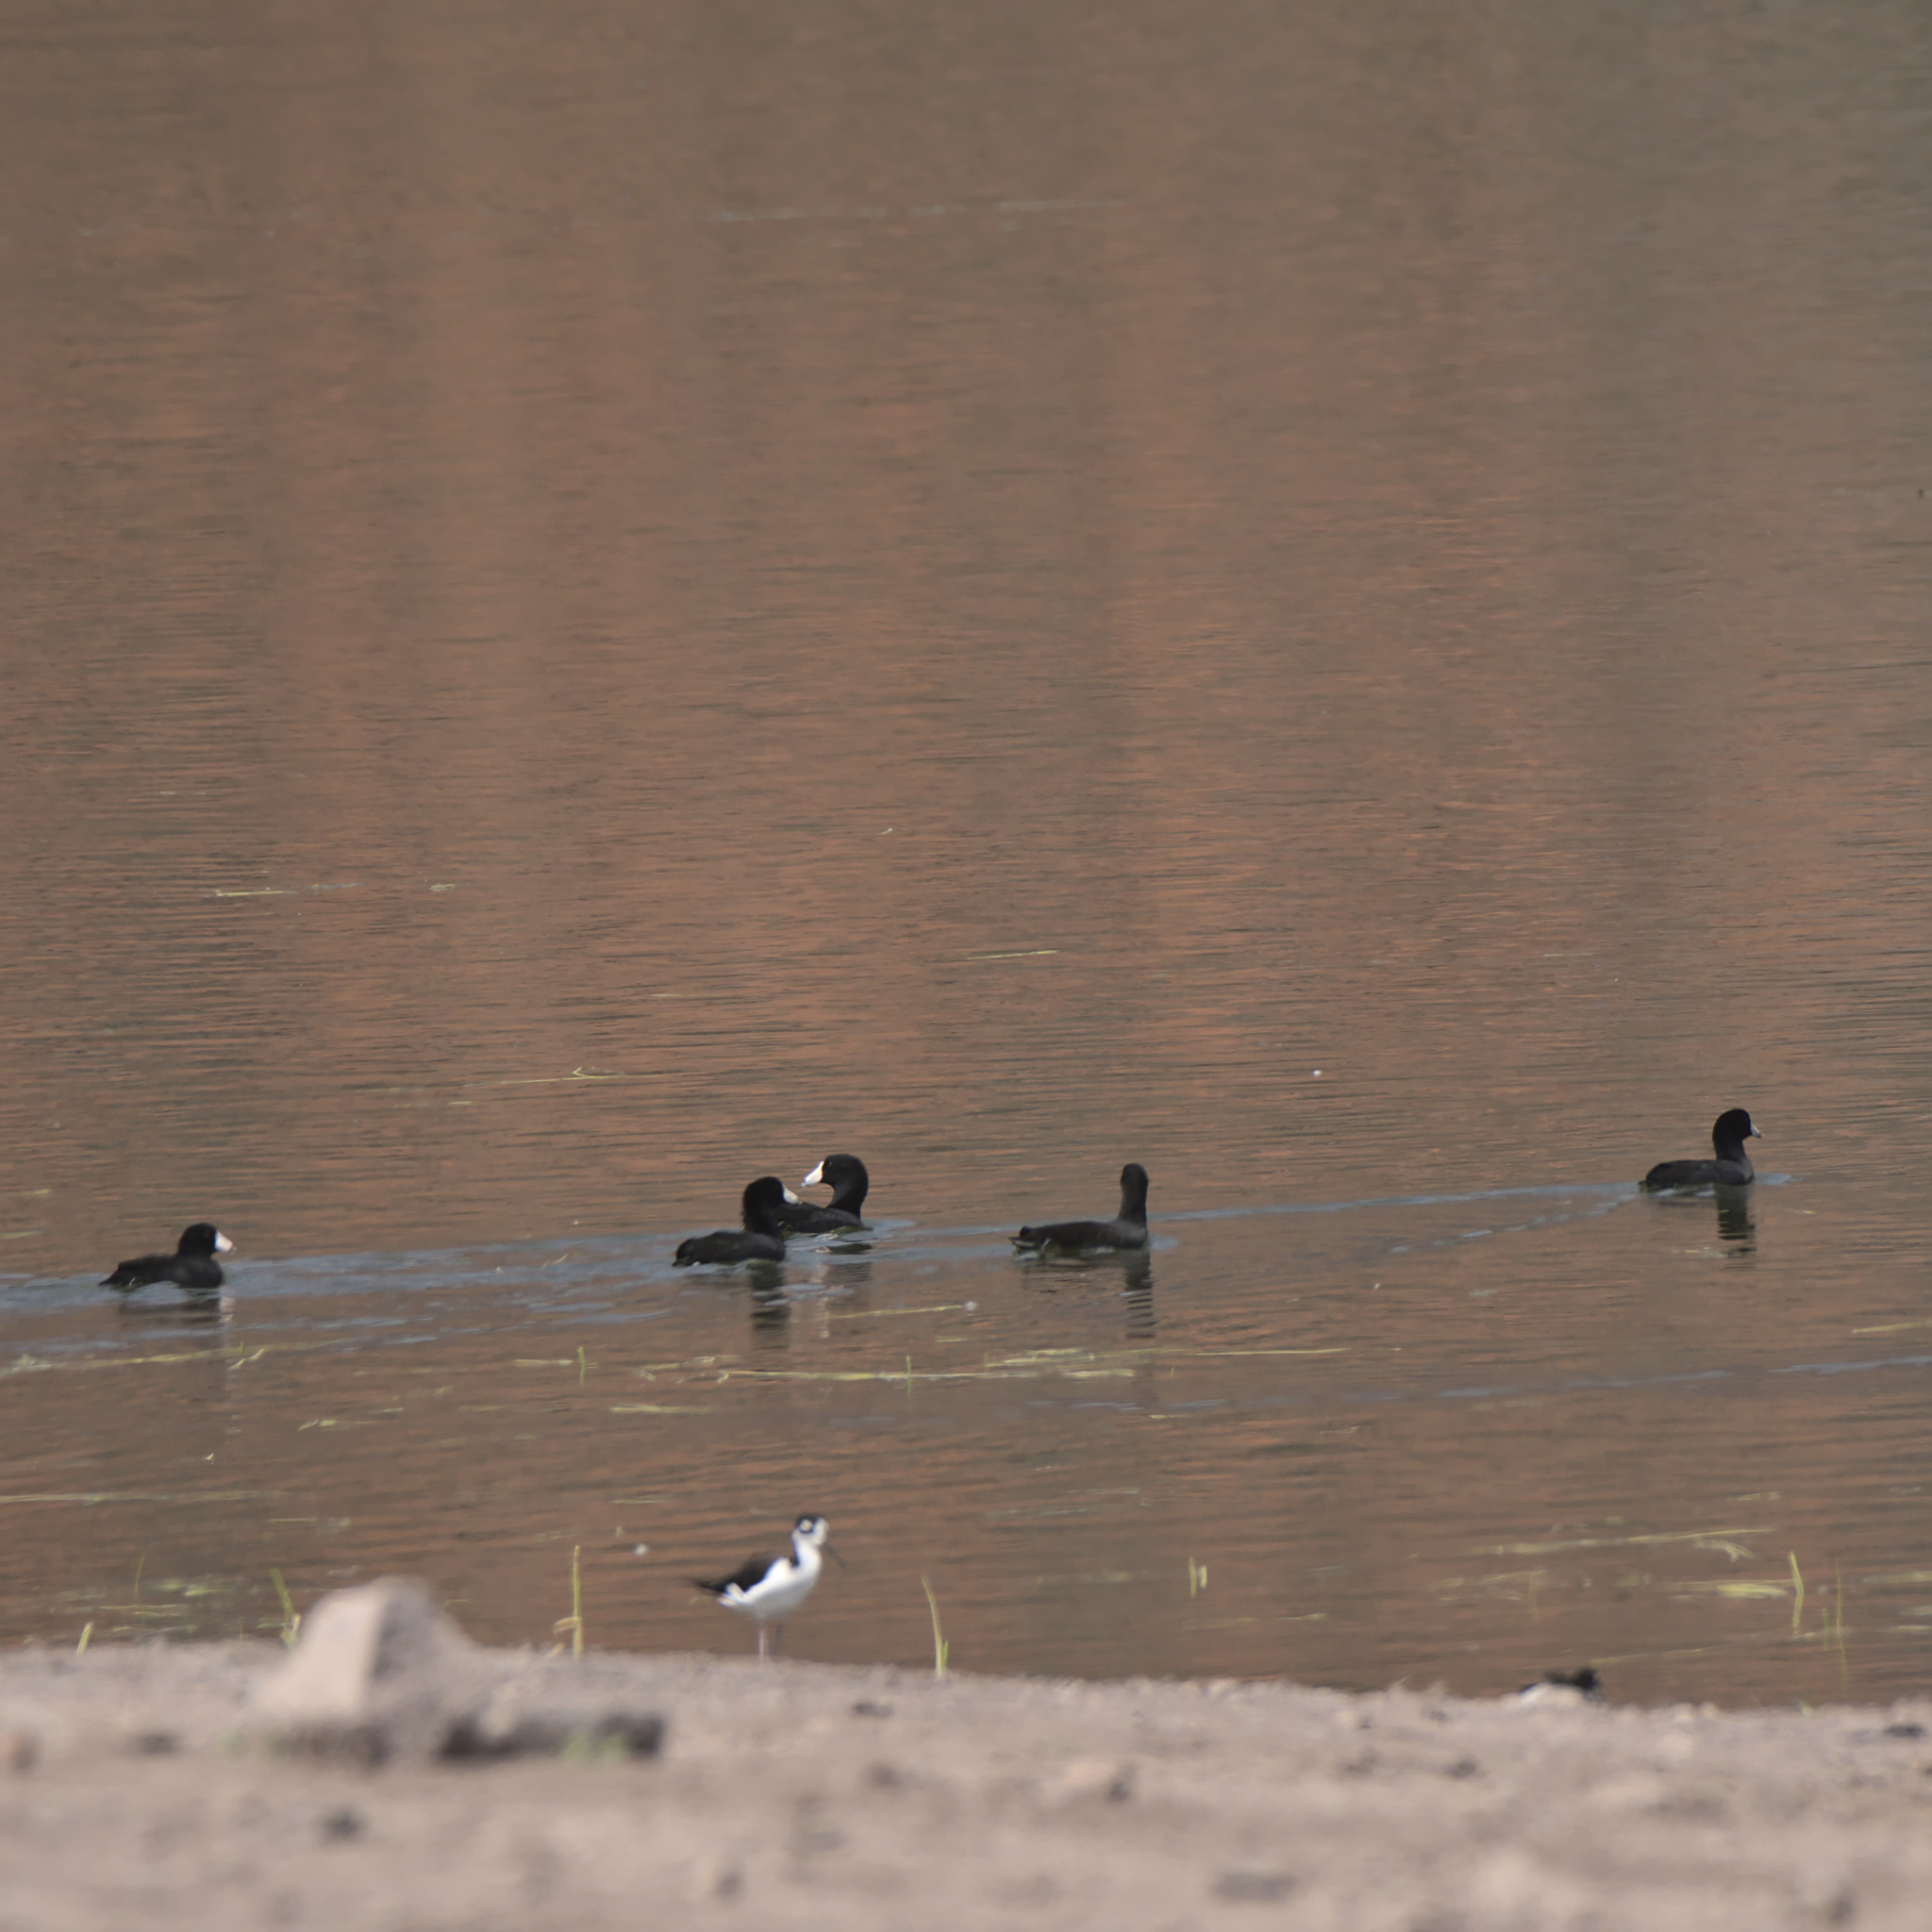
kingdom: Animalia
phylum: Chordata
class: Aves
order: Gruiformes
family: Rallidae
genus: Fulica
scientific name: Fulica americana
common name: American coot
